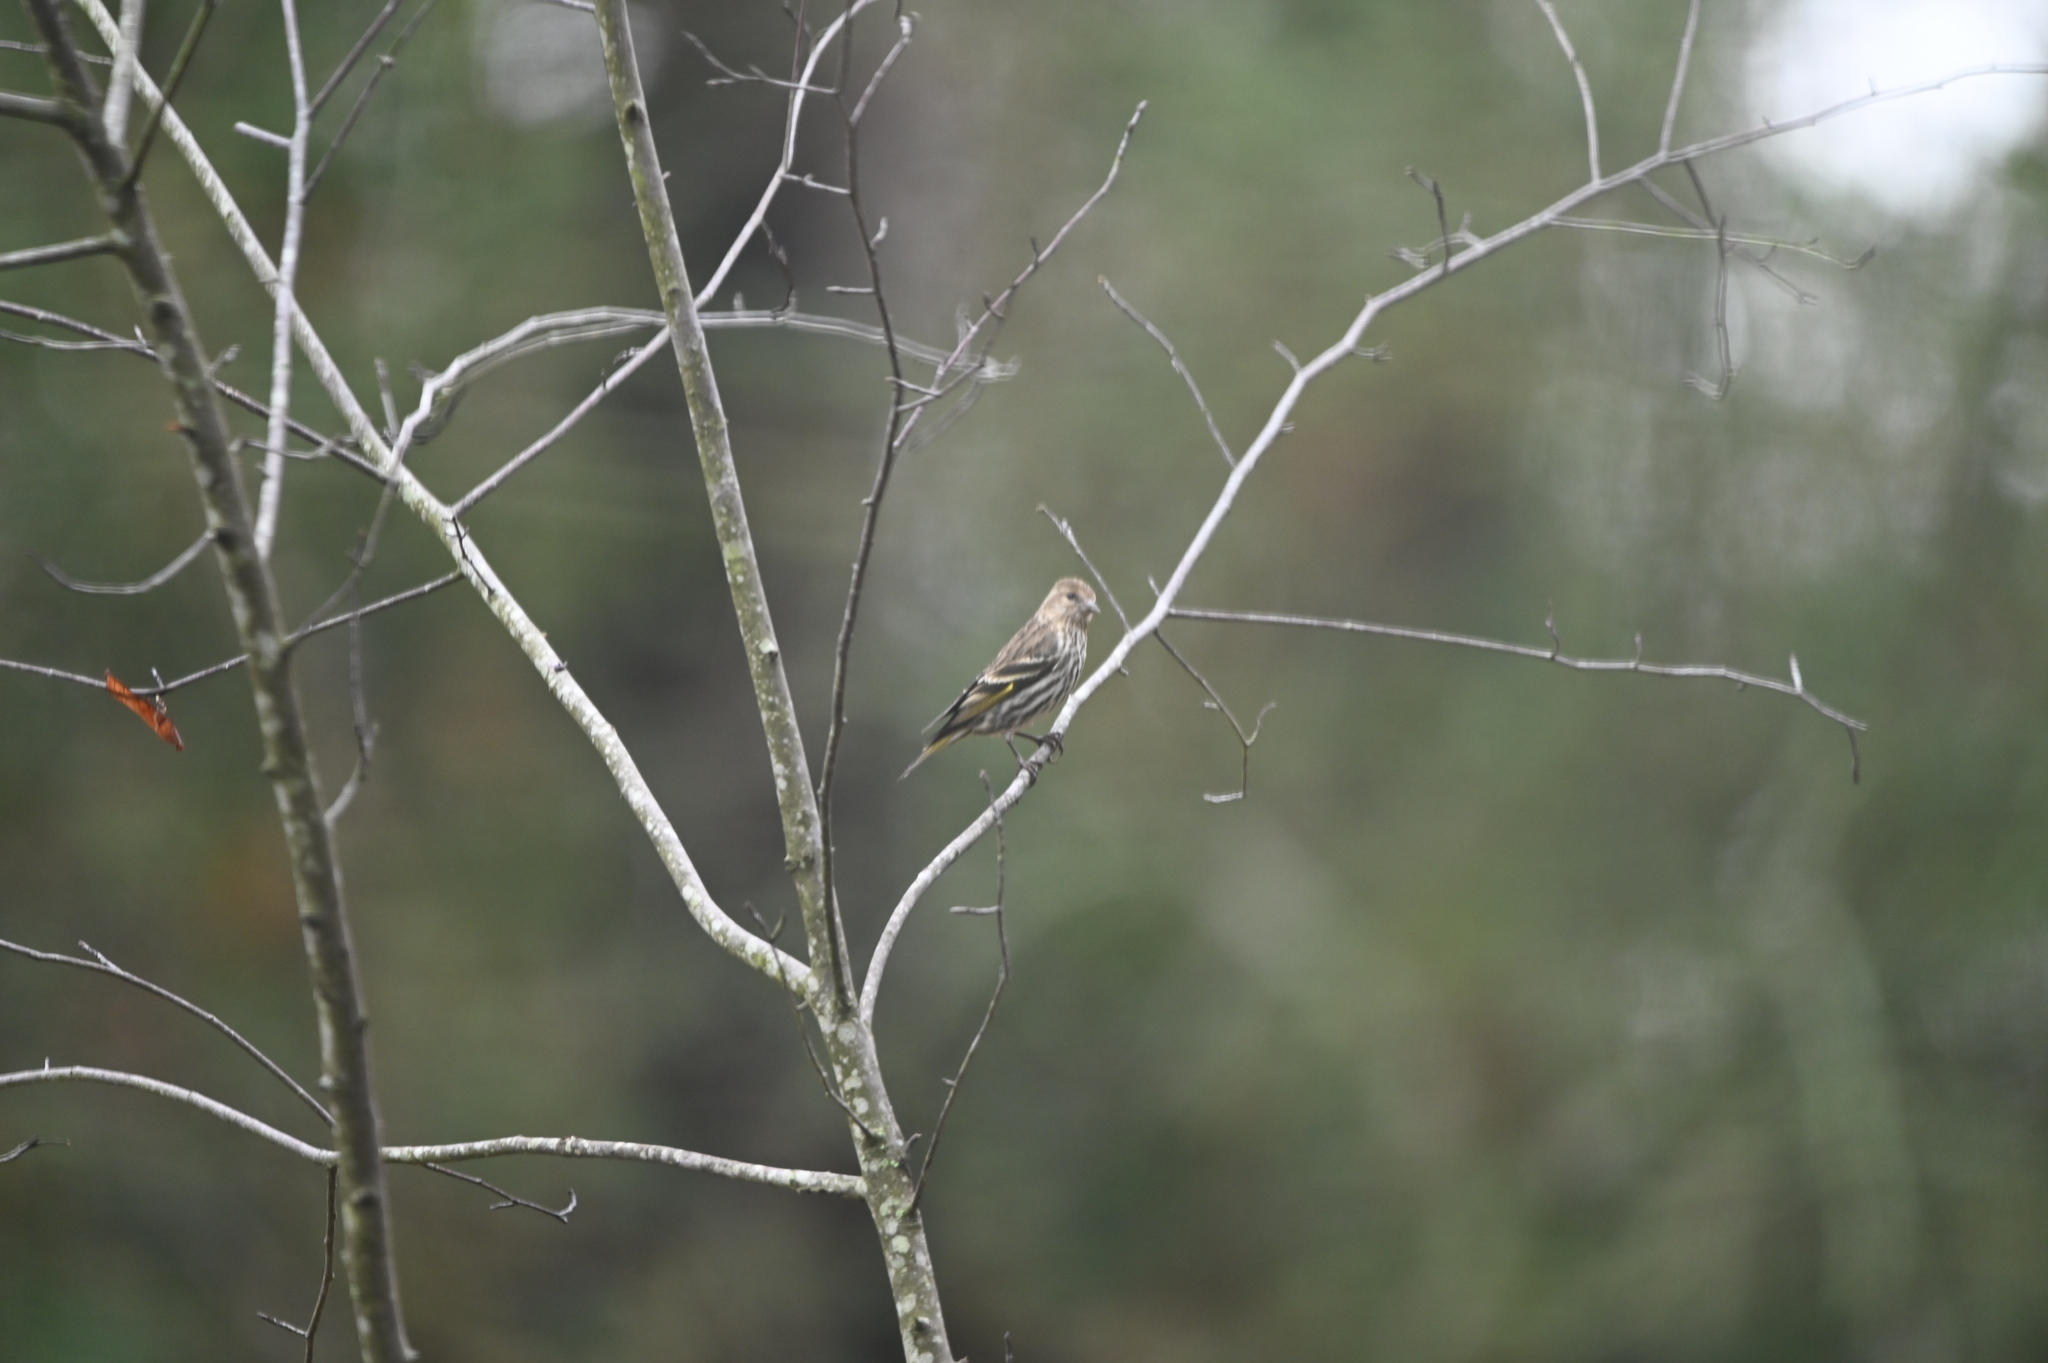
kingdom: Animalia
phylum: Chordata
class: Aves
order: Passeriformes
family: Fringillidae
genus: Spinus
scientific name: Spinus pinus
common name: Pine siskin
